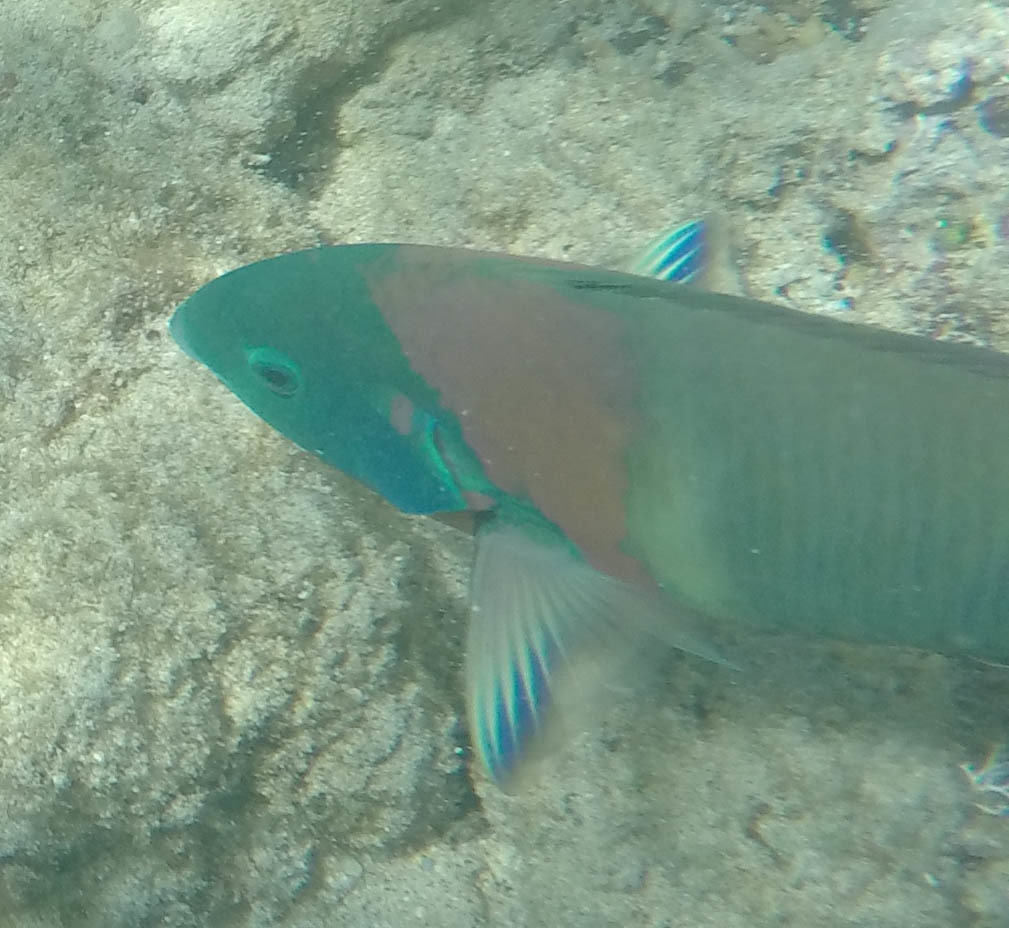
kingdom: Animalia
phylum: Chordata
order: Perciformes
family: Labridae
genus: Thalassoma
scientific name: Thalassoma duperrey
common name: Saddle wrasse
